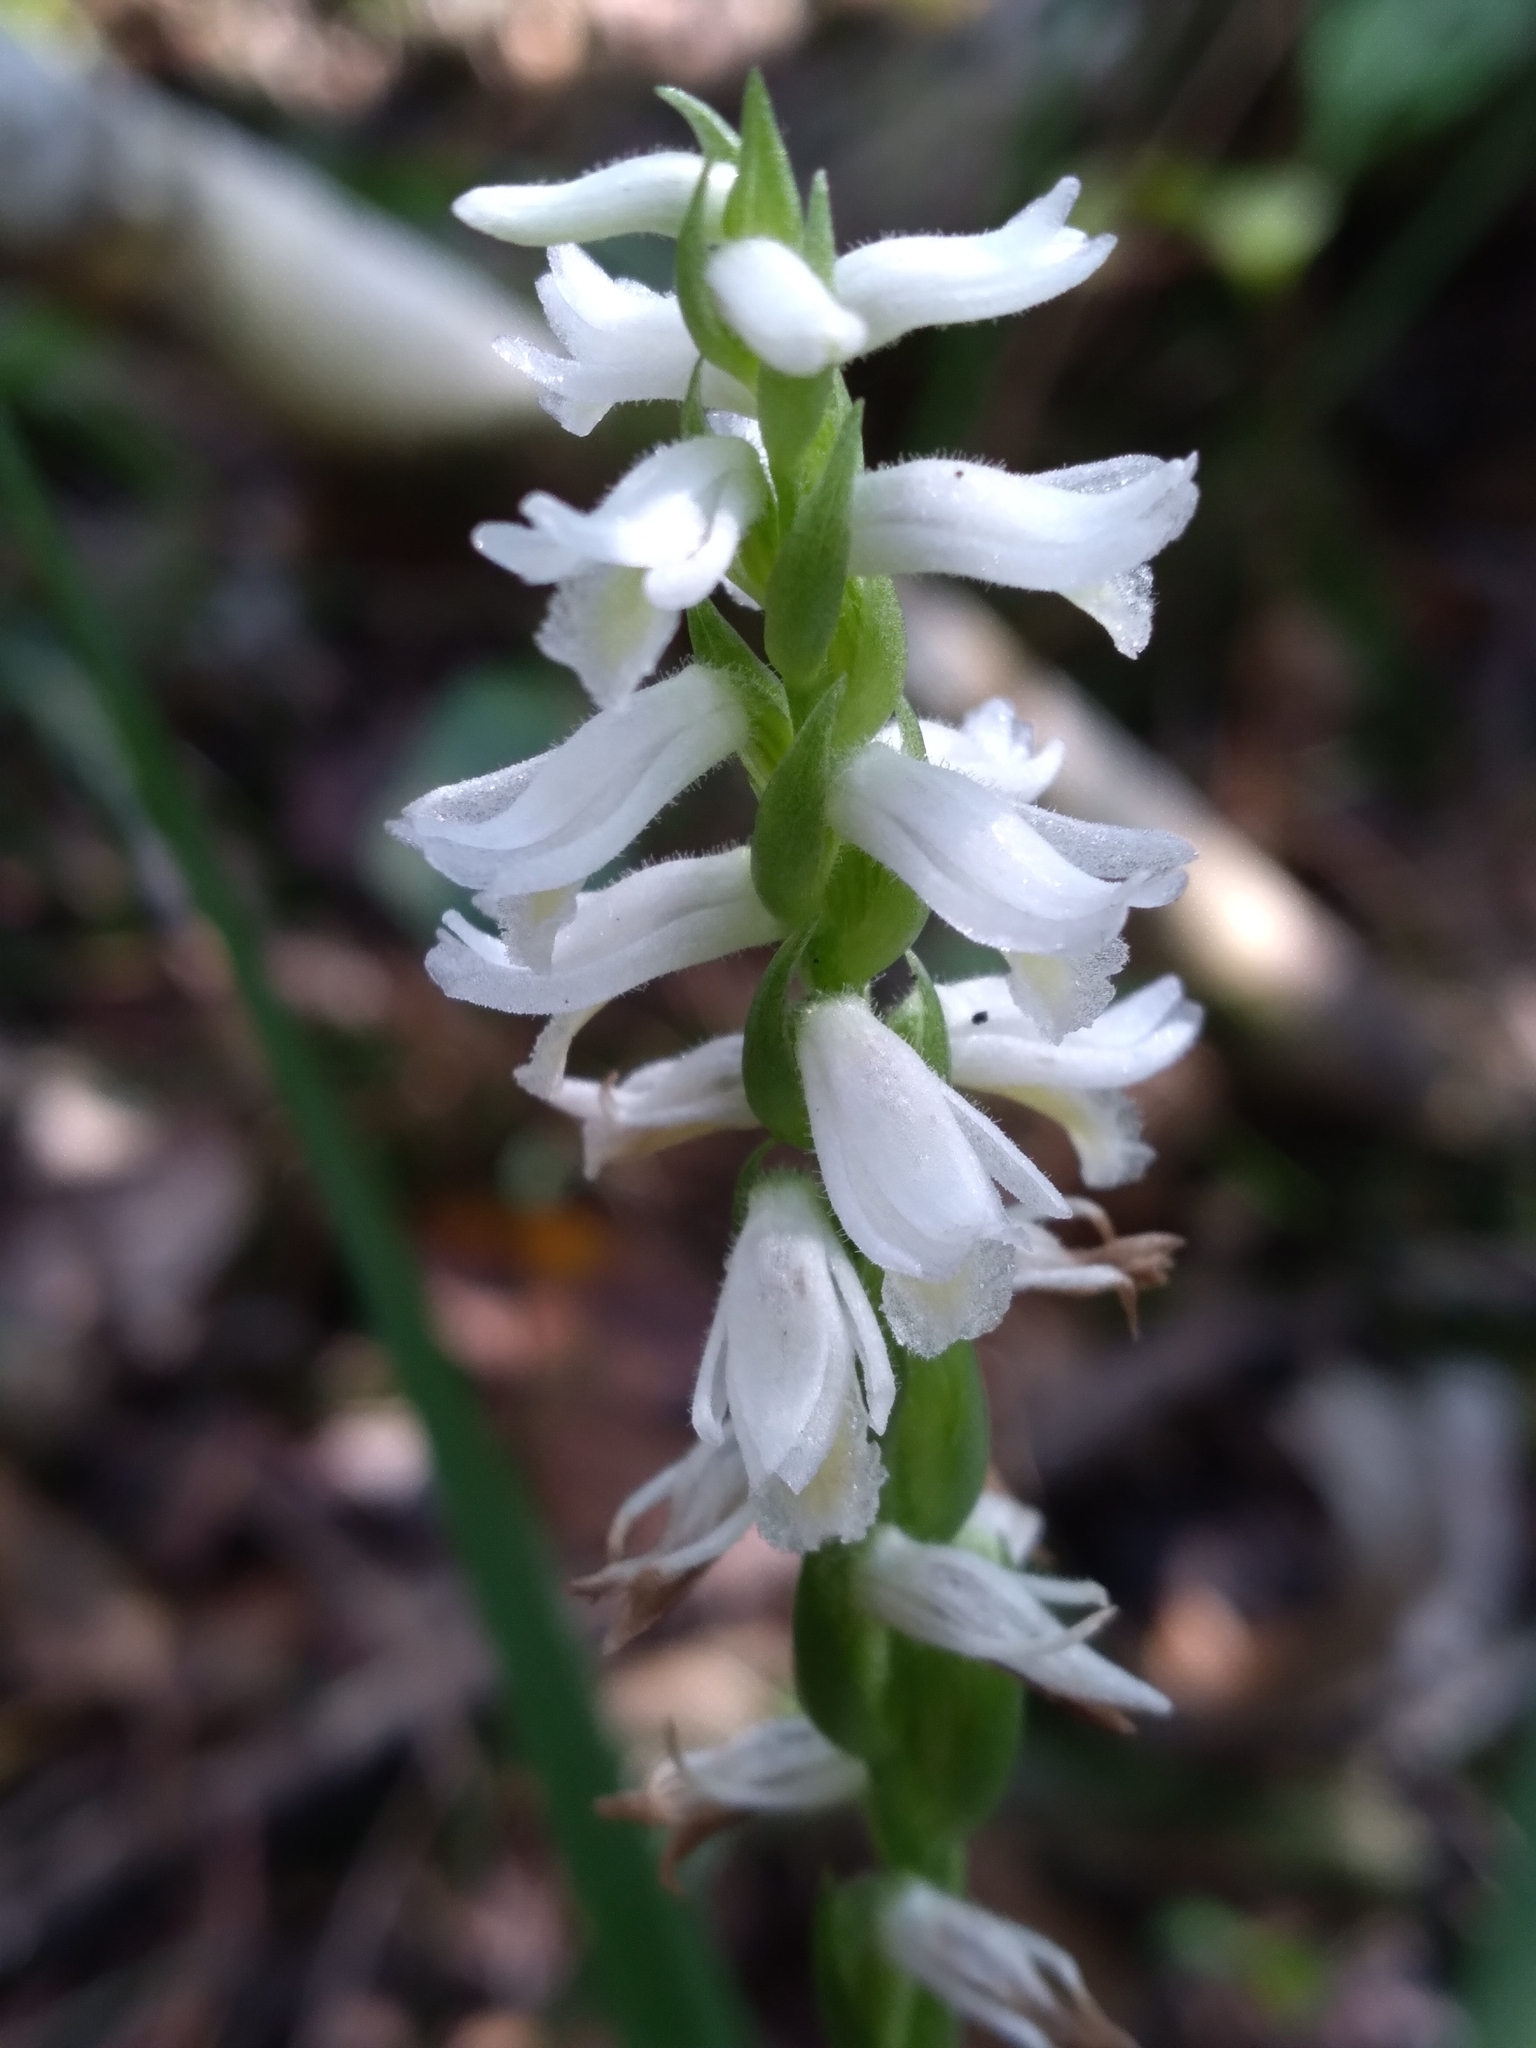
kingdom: Plantae
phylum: Tracheophyta
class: Liliopsida
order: Asparagales
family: Orchidaceae
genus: Spiranthes
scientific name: Spiranthes triloba
